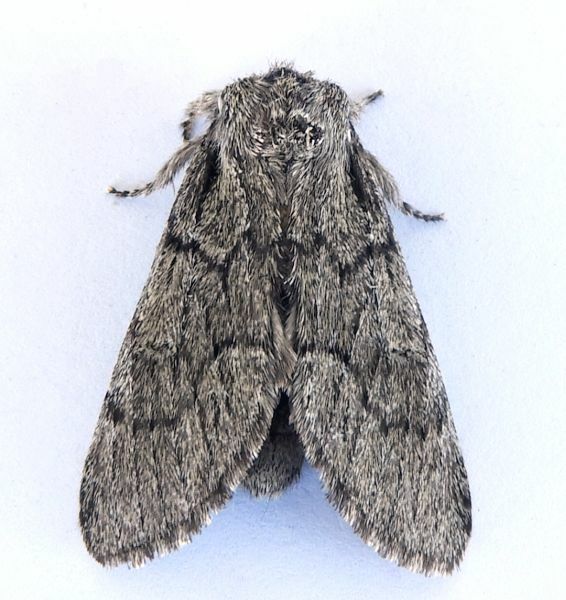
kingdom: Animalia
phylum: Arthropoda
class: Insecta
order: Lepidoptera
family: Notodontidae
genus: Paraeschra
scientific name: Paraeschra tortuosa
